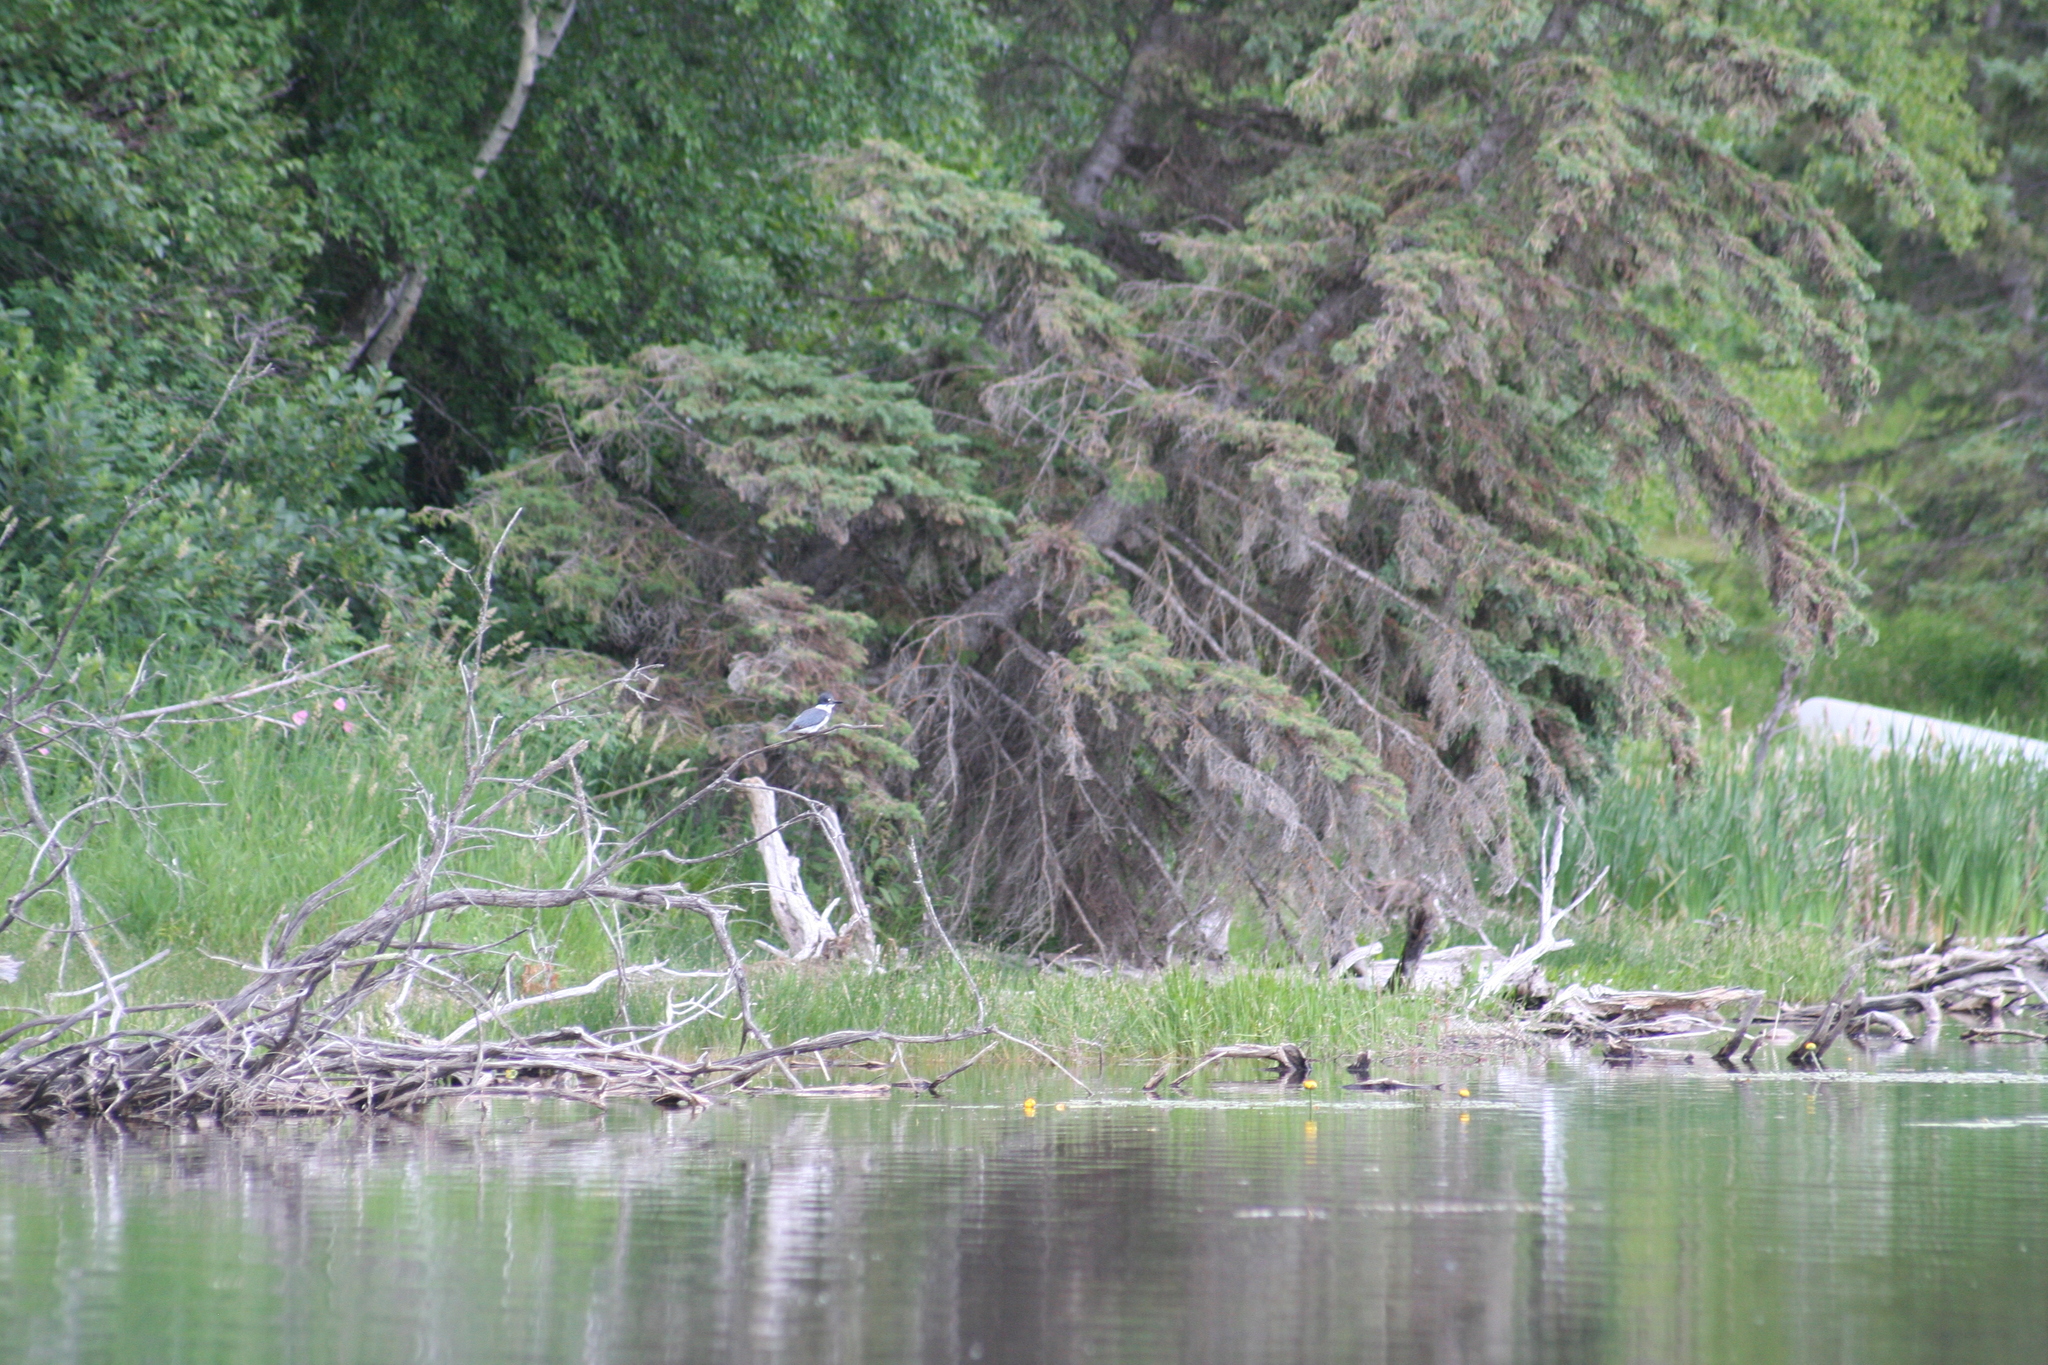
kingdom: Animalia
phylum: Chordata
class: Aves
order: Coraciiformes
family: Alcedinidae
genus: Megaceryle
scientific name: Megaceryle alcyon
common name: Belted kingfisher
